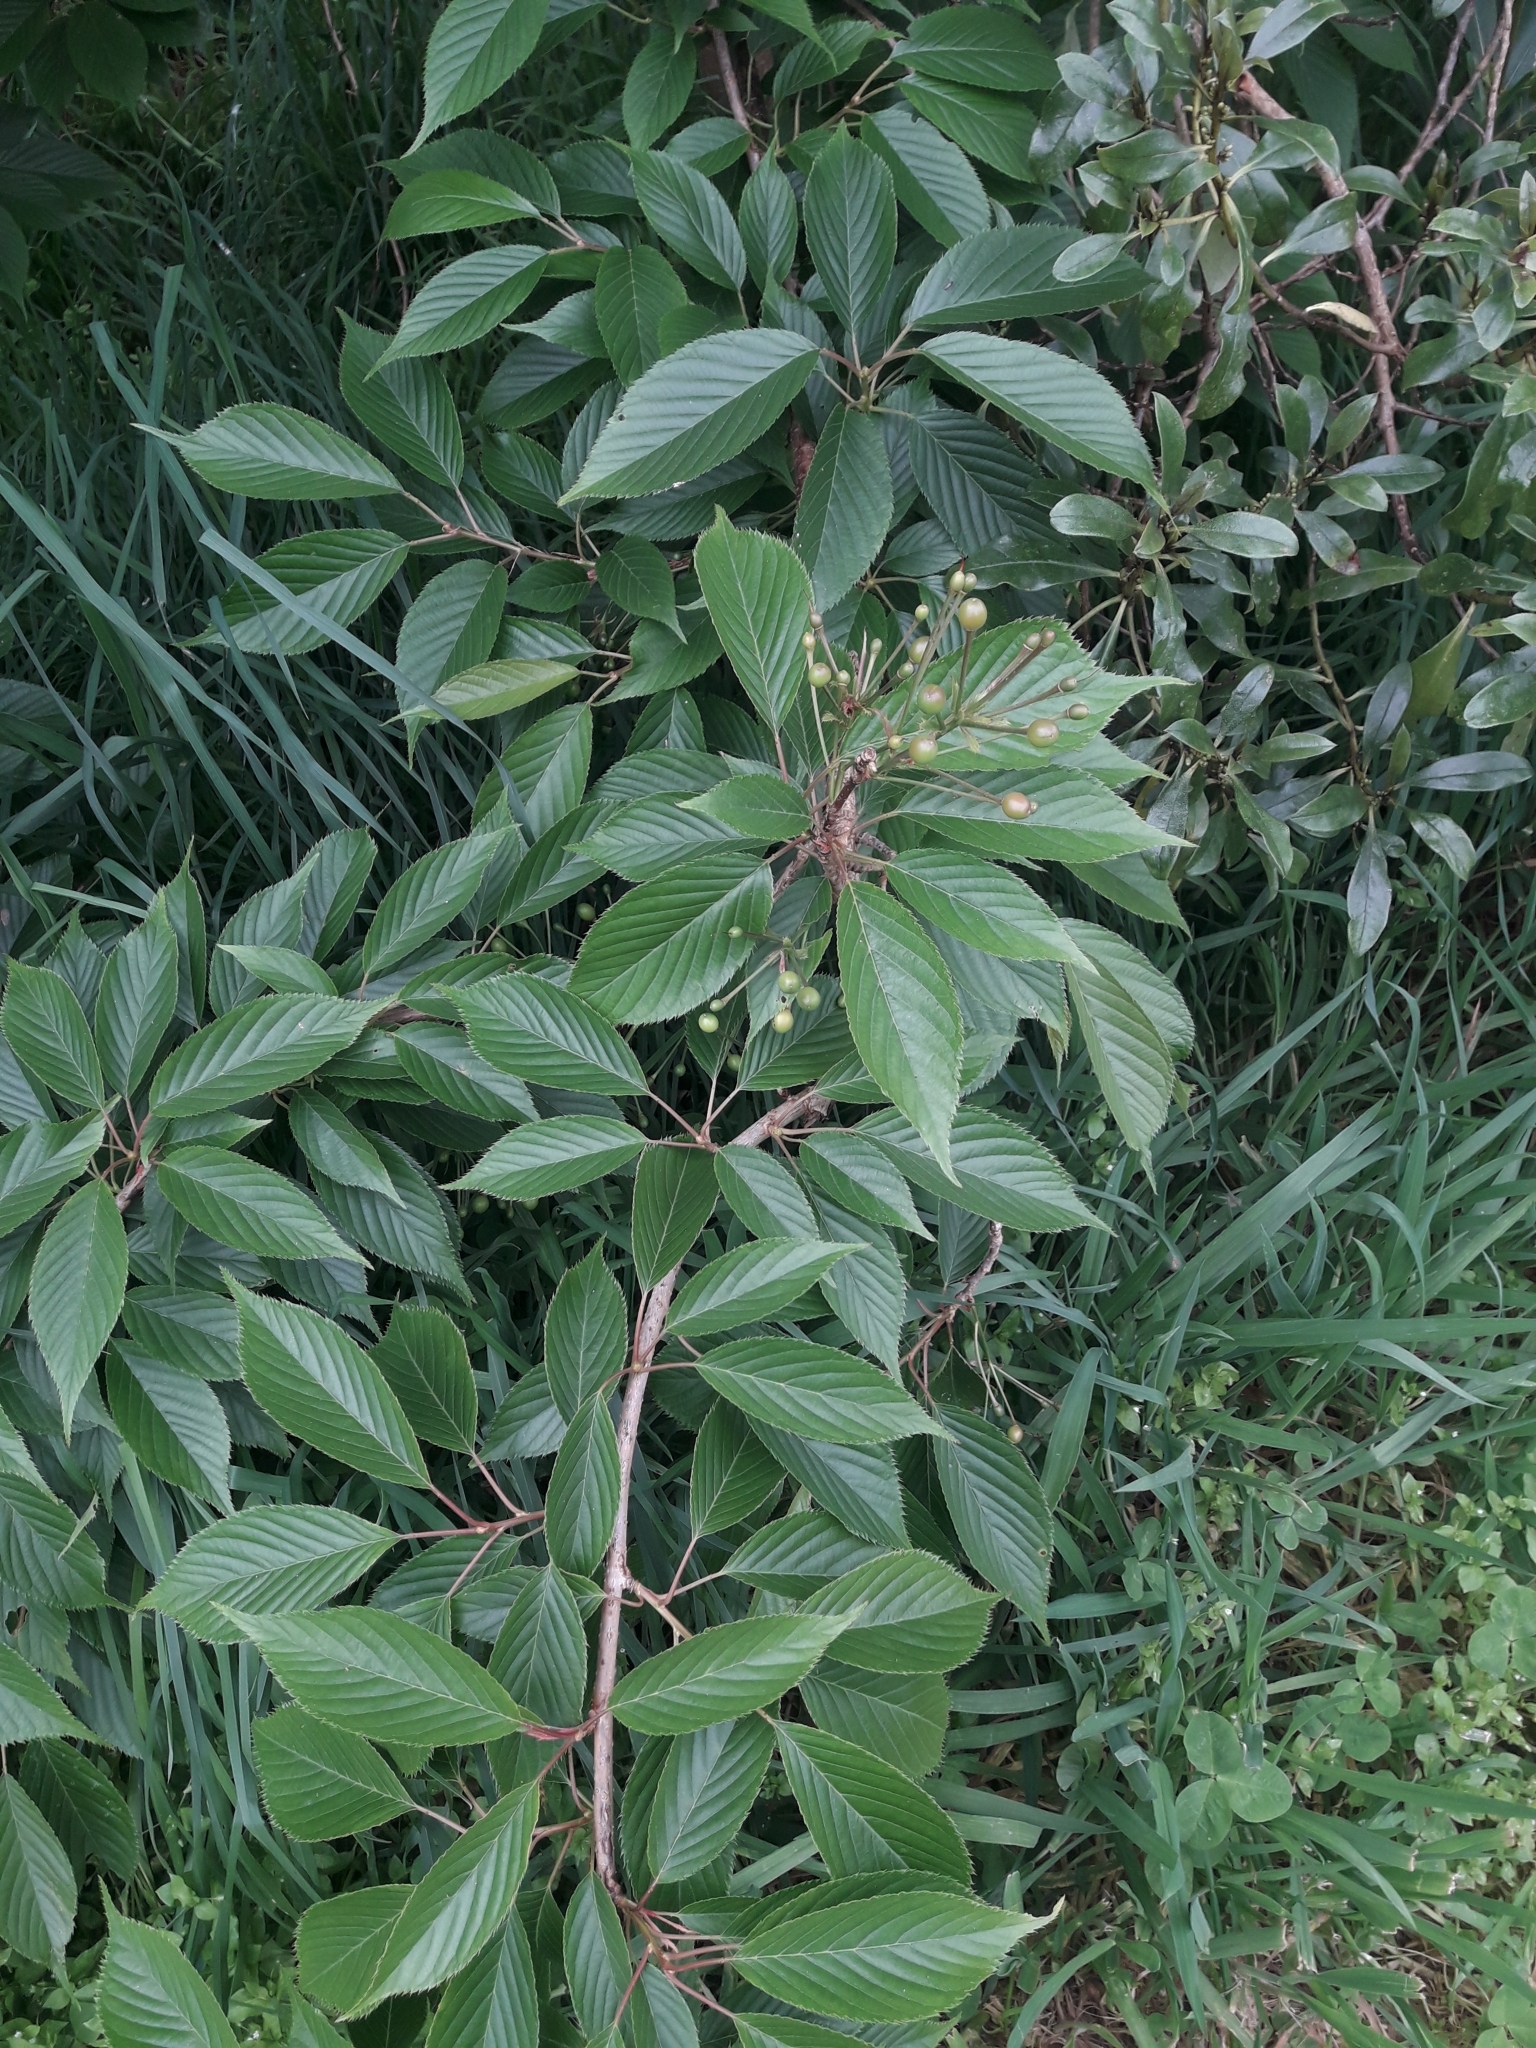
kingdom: Plantae
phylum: Tracheophyta
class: Magnoliopsida
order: Rosales
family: Rosaceae
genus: Prunus
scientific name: Prunus serrulata
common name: Japanese cherry
